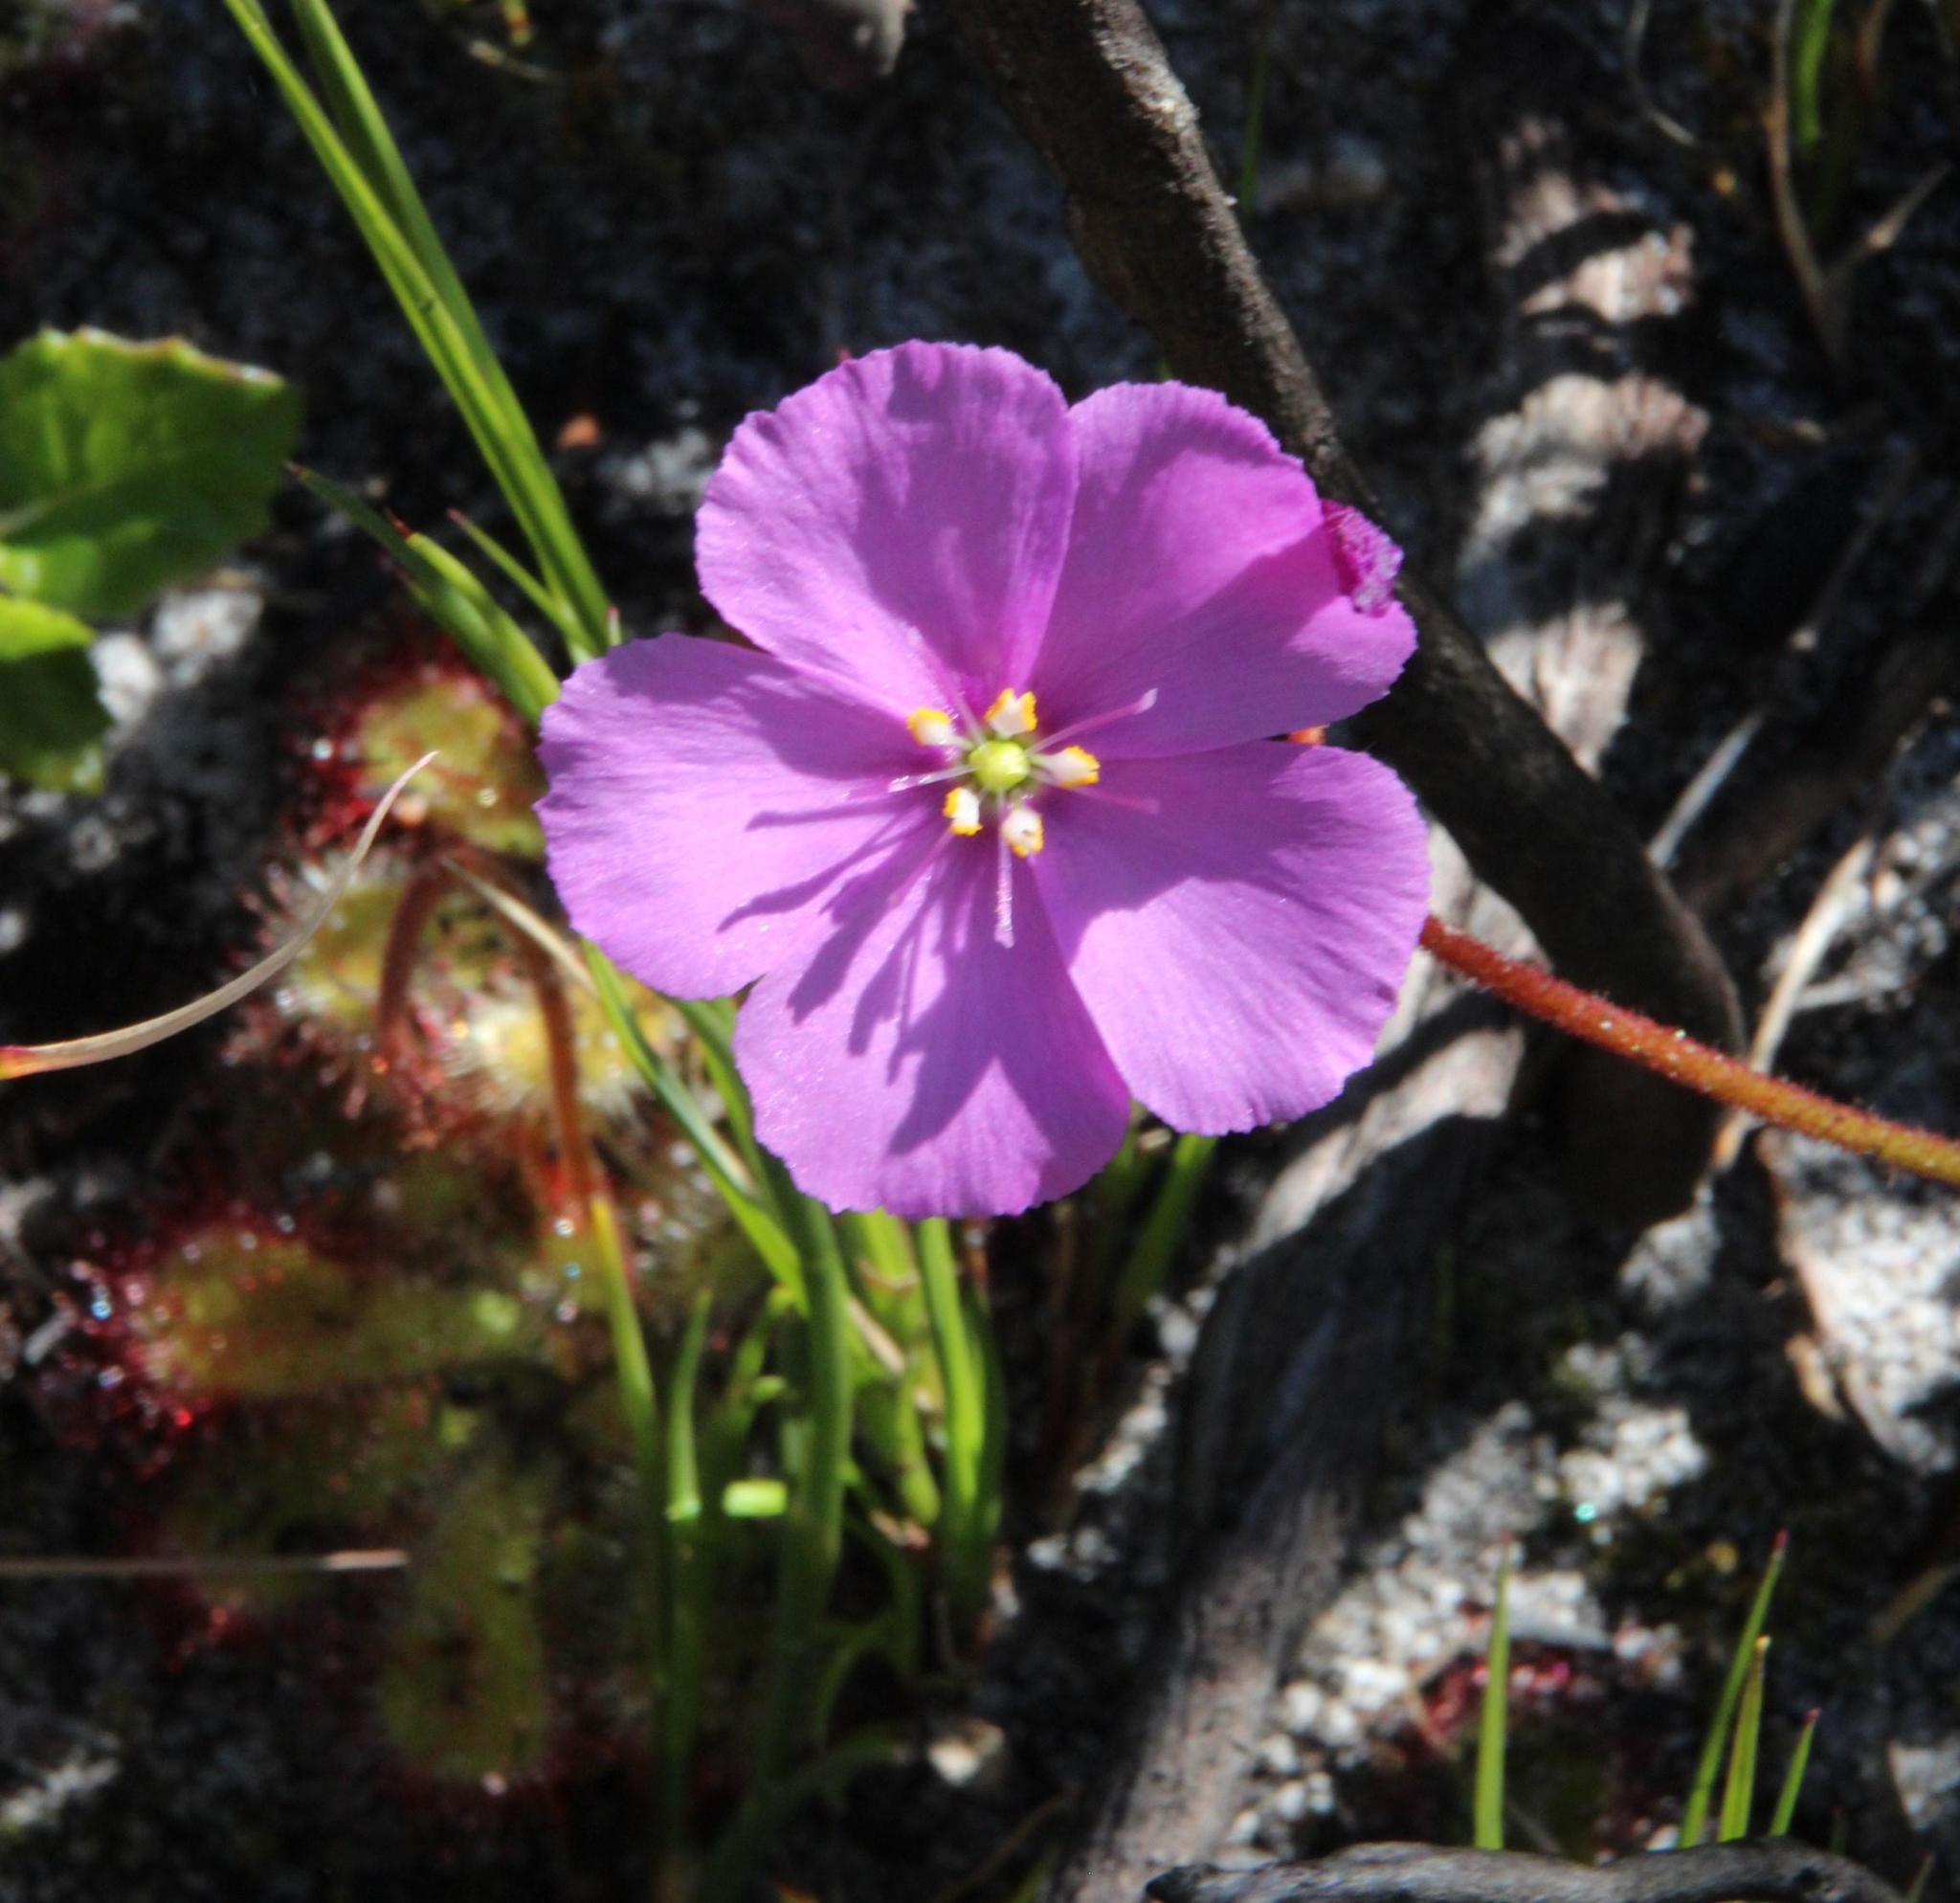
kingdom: Plantae
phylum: Tracheophyta
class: Magnoliopsida
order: Caryophyllales
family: Droseraceae
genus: Drosera
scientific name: Drosera cuneifolia
